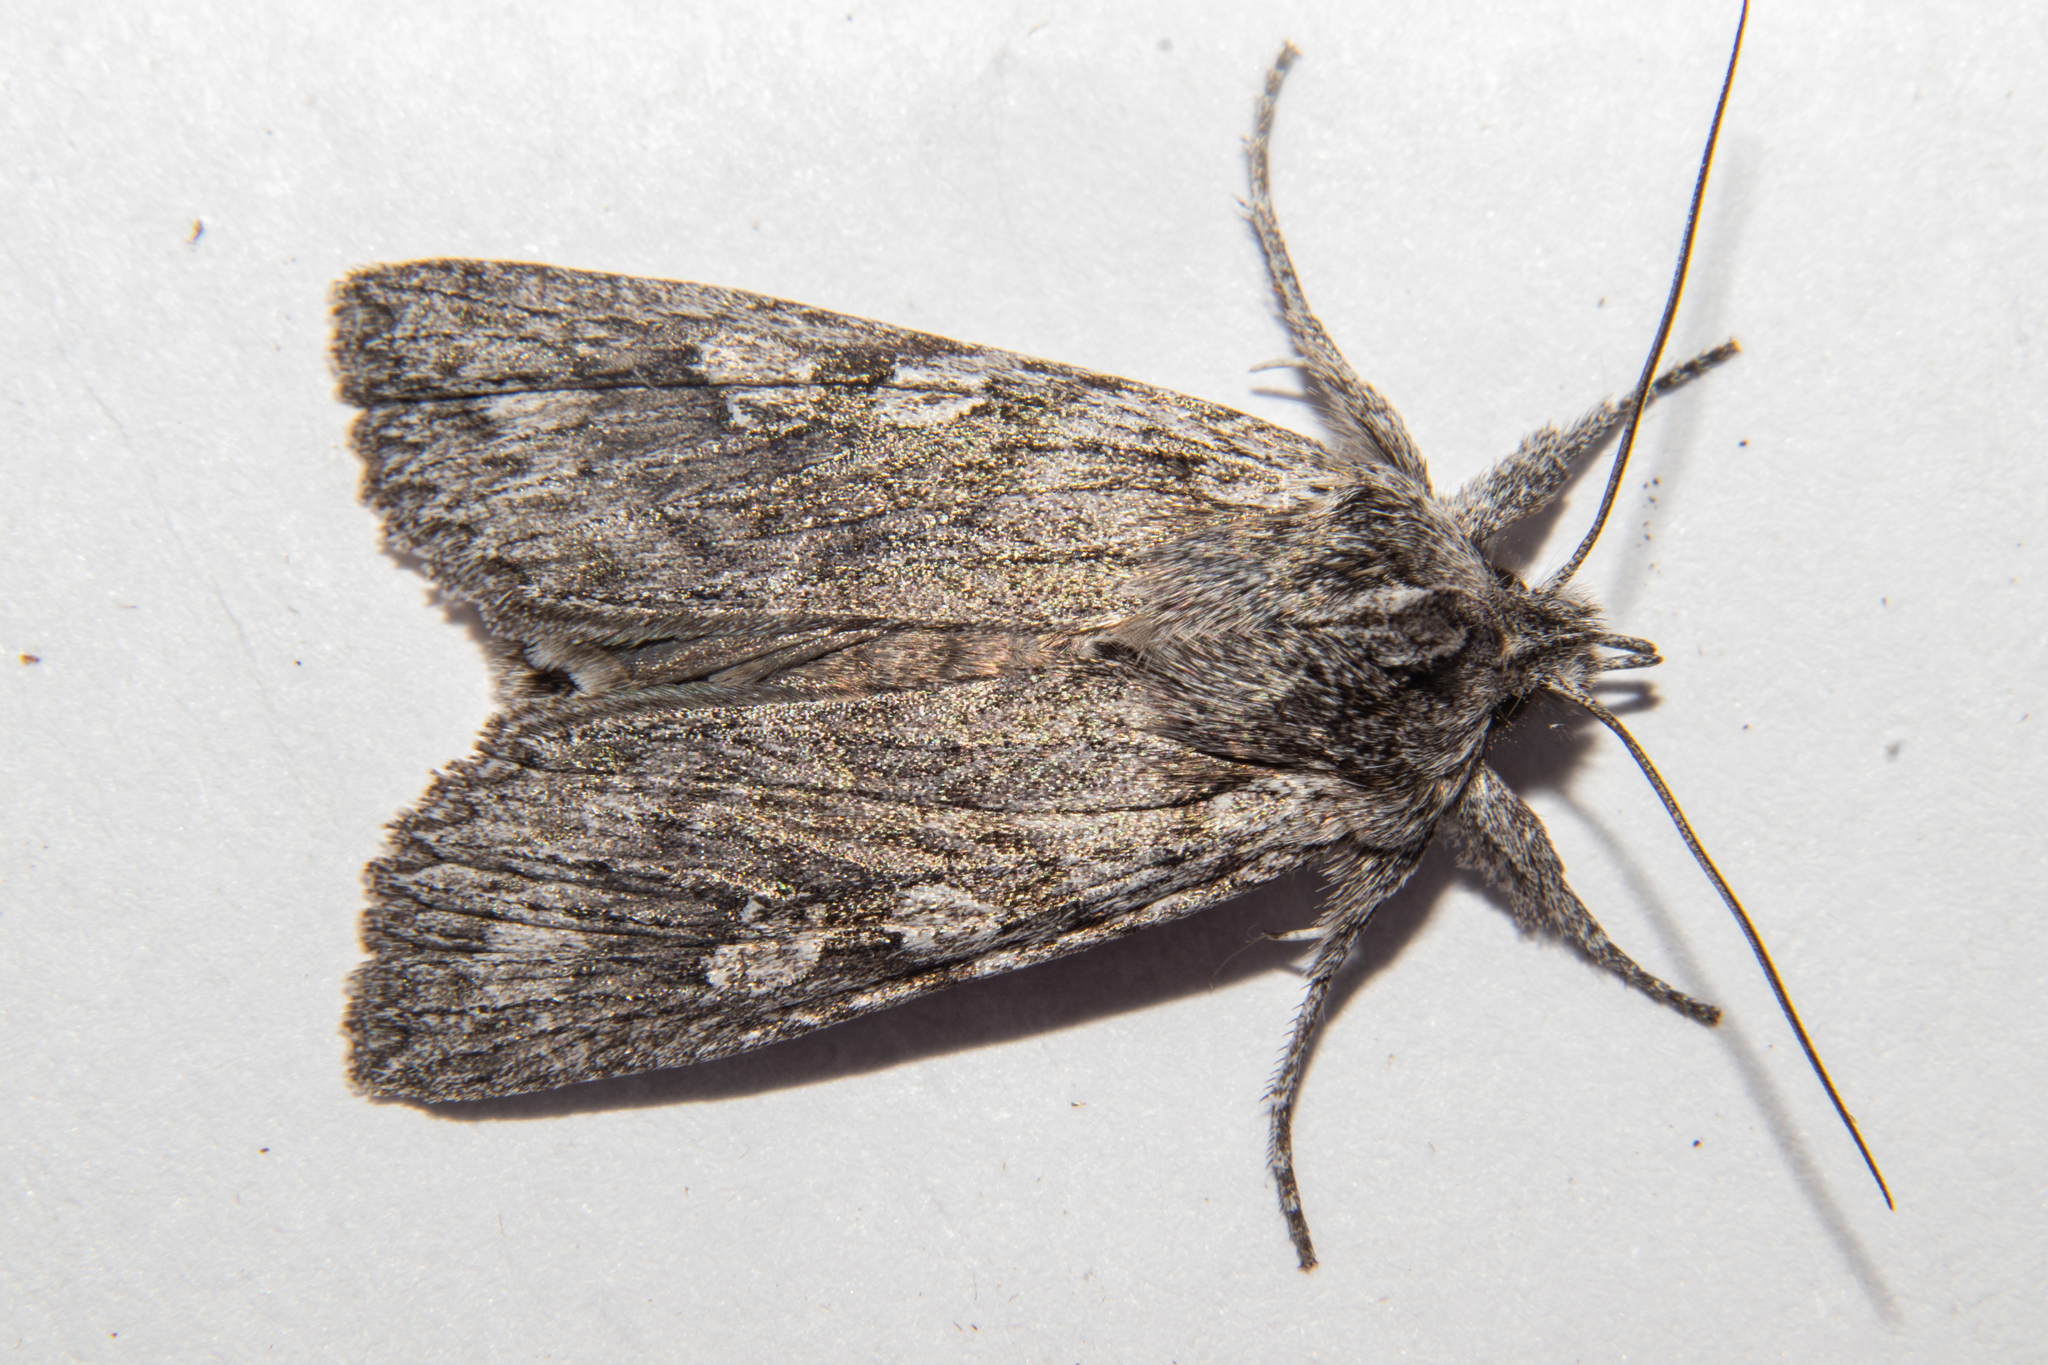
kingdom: Animalia
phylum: Arthropoda
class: Insecta
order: Lepidoptera
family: Noctuidae
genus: Physetica
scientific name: Physetica phricias
